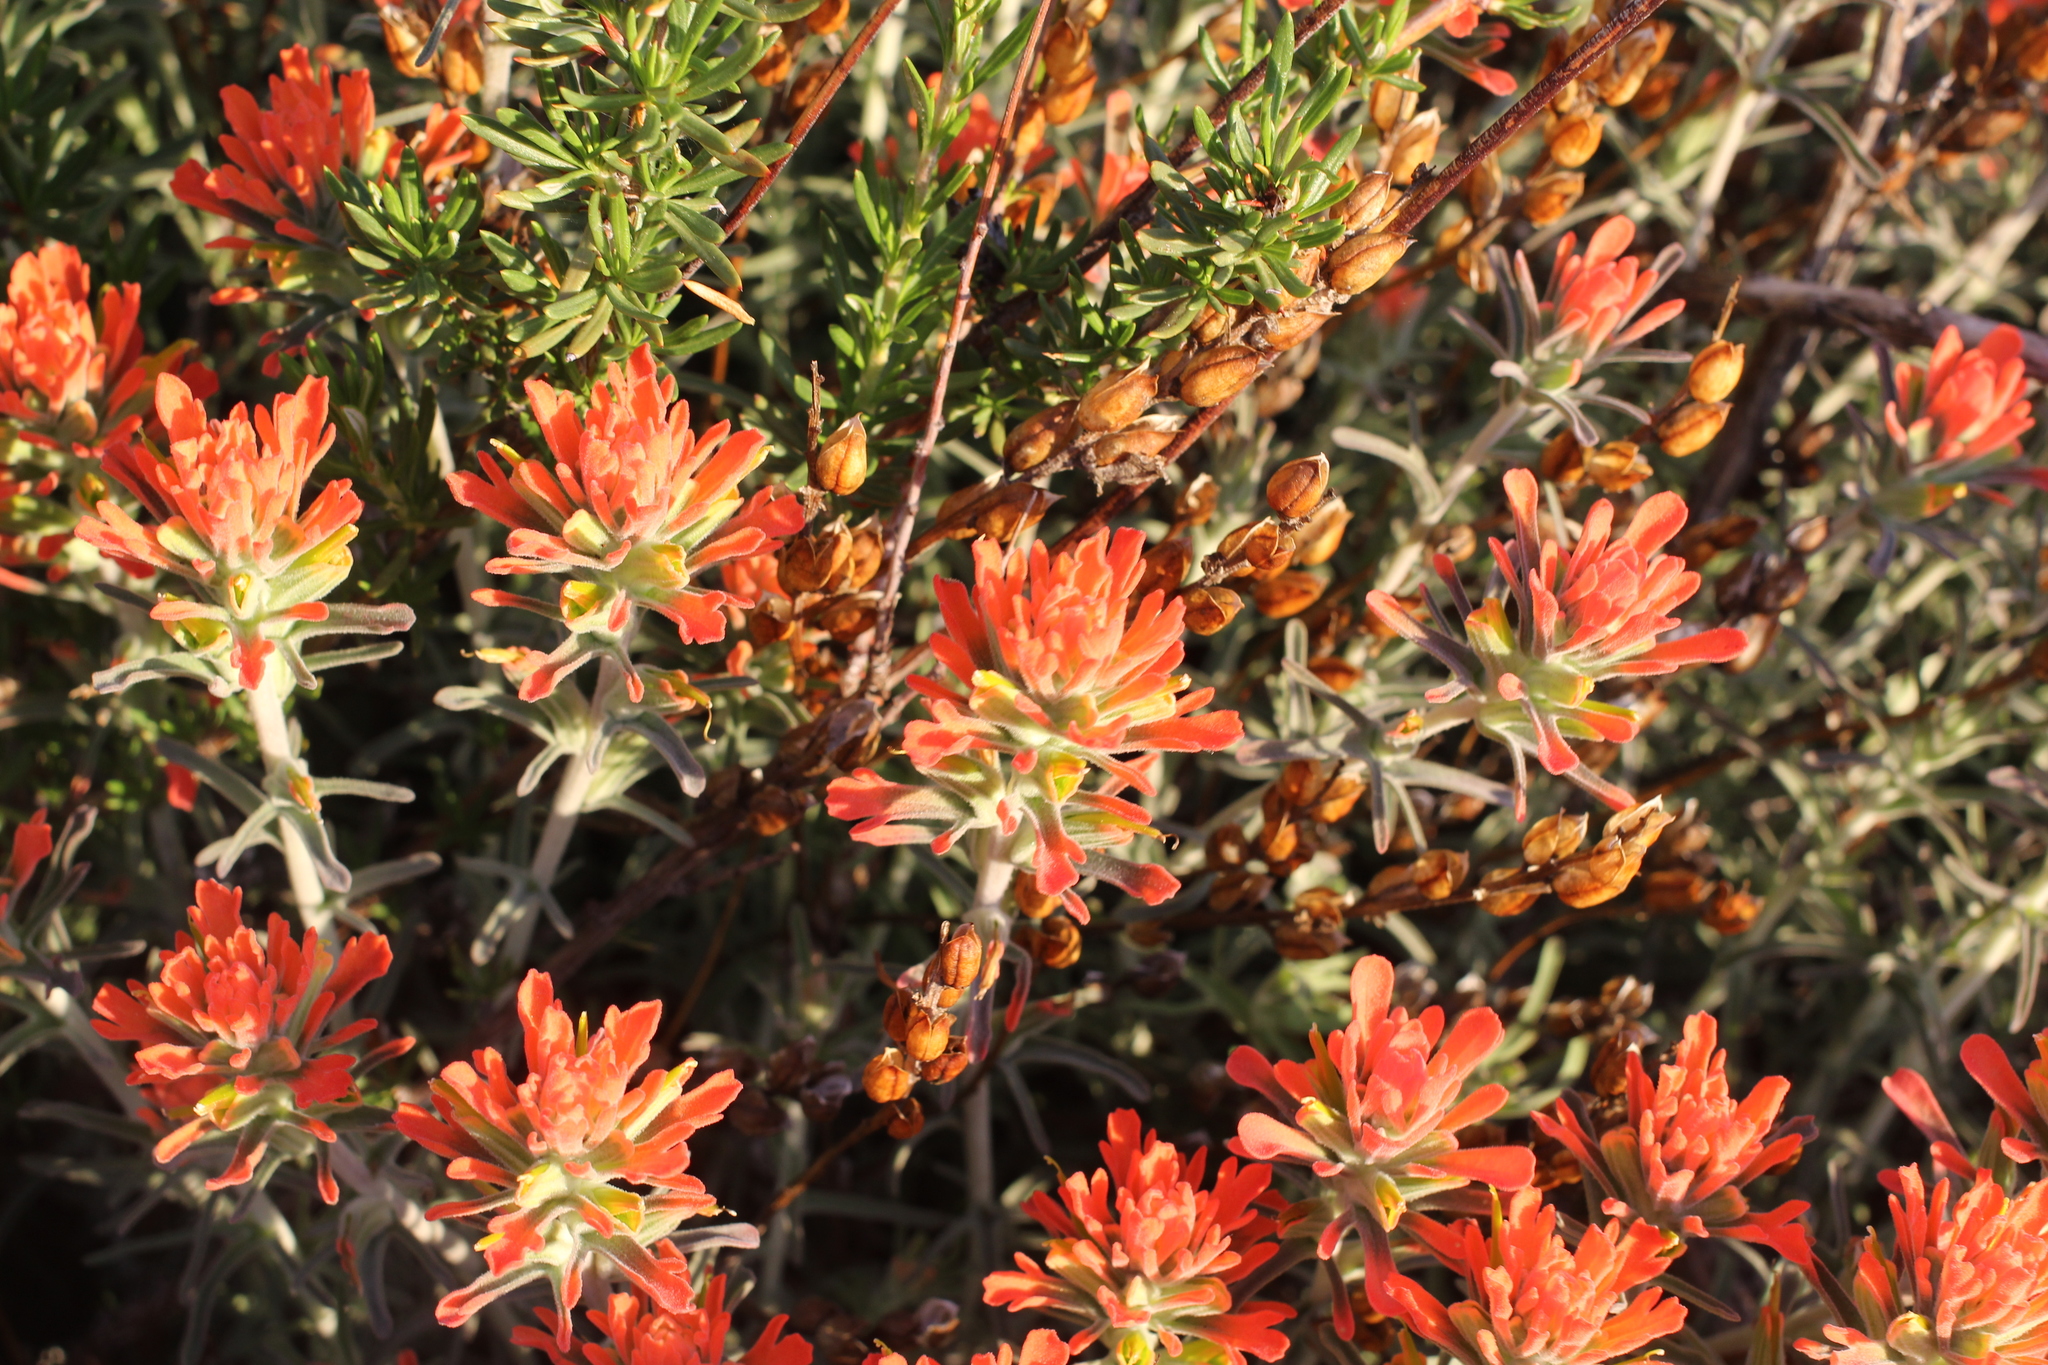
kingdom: Plantae
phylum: Tracheophyta
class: Magnoliopsida
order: Lamiales
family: Orobanchaceae
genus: Castilleja
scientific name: Castilleja foliolosa
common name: Woolly indian paintbrush
